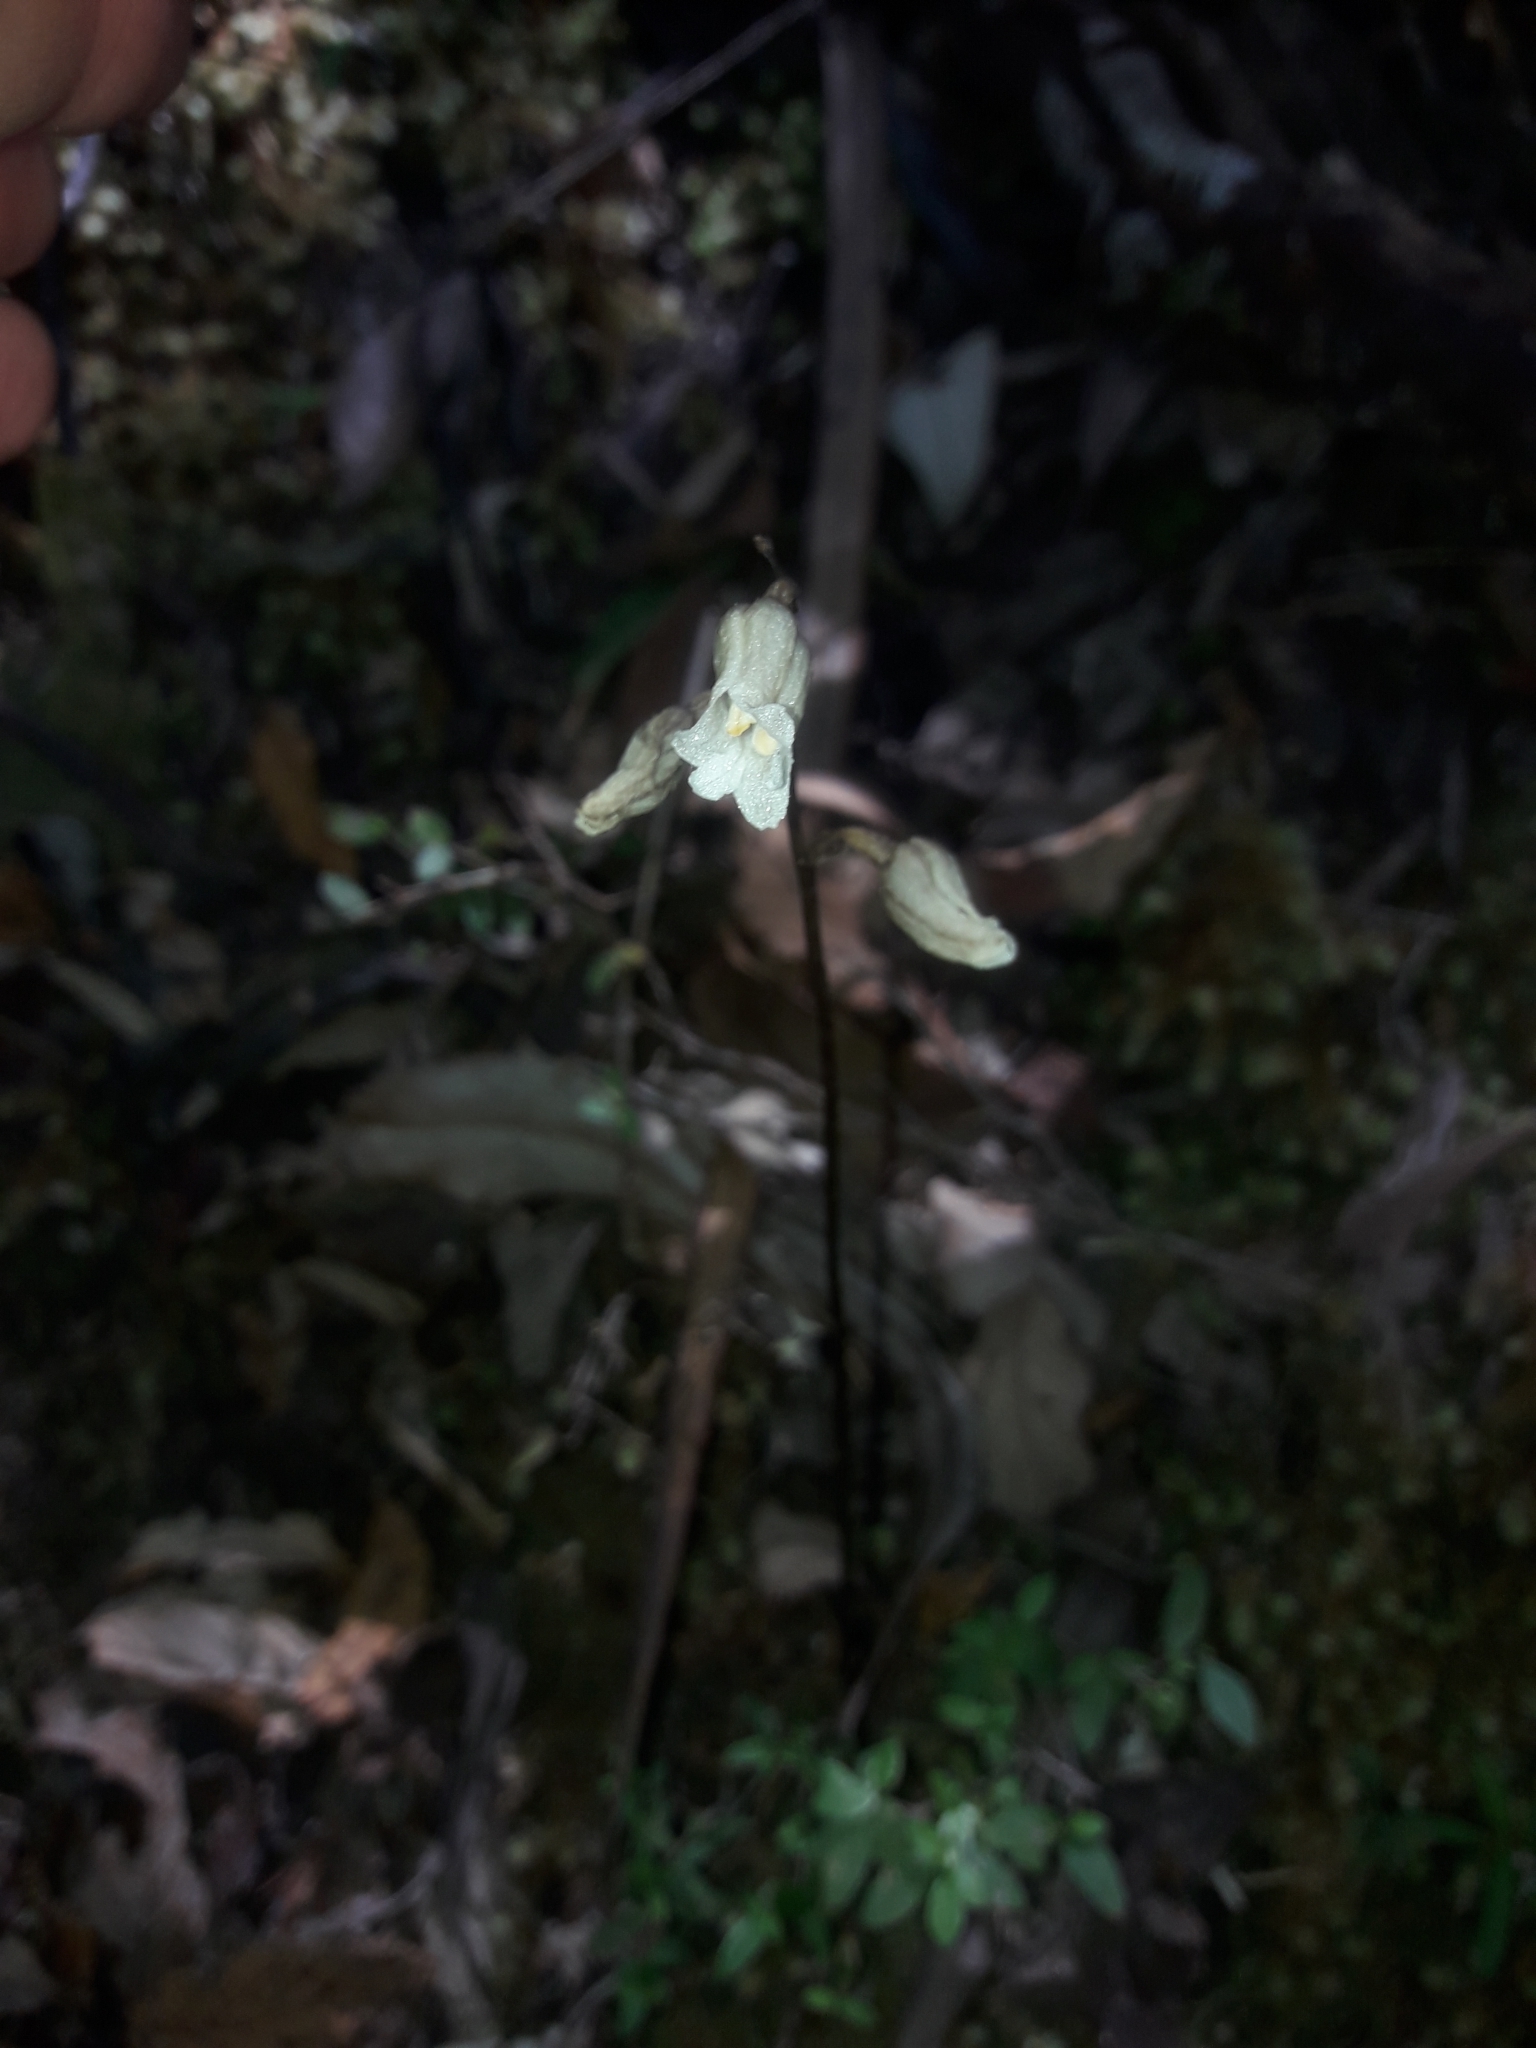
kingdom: Plantae
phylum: Tracheophyta
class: Liliopsida
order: Asparagales
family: Orchidaceae
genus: Gastrodia
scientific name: Gastrodia procera
